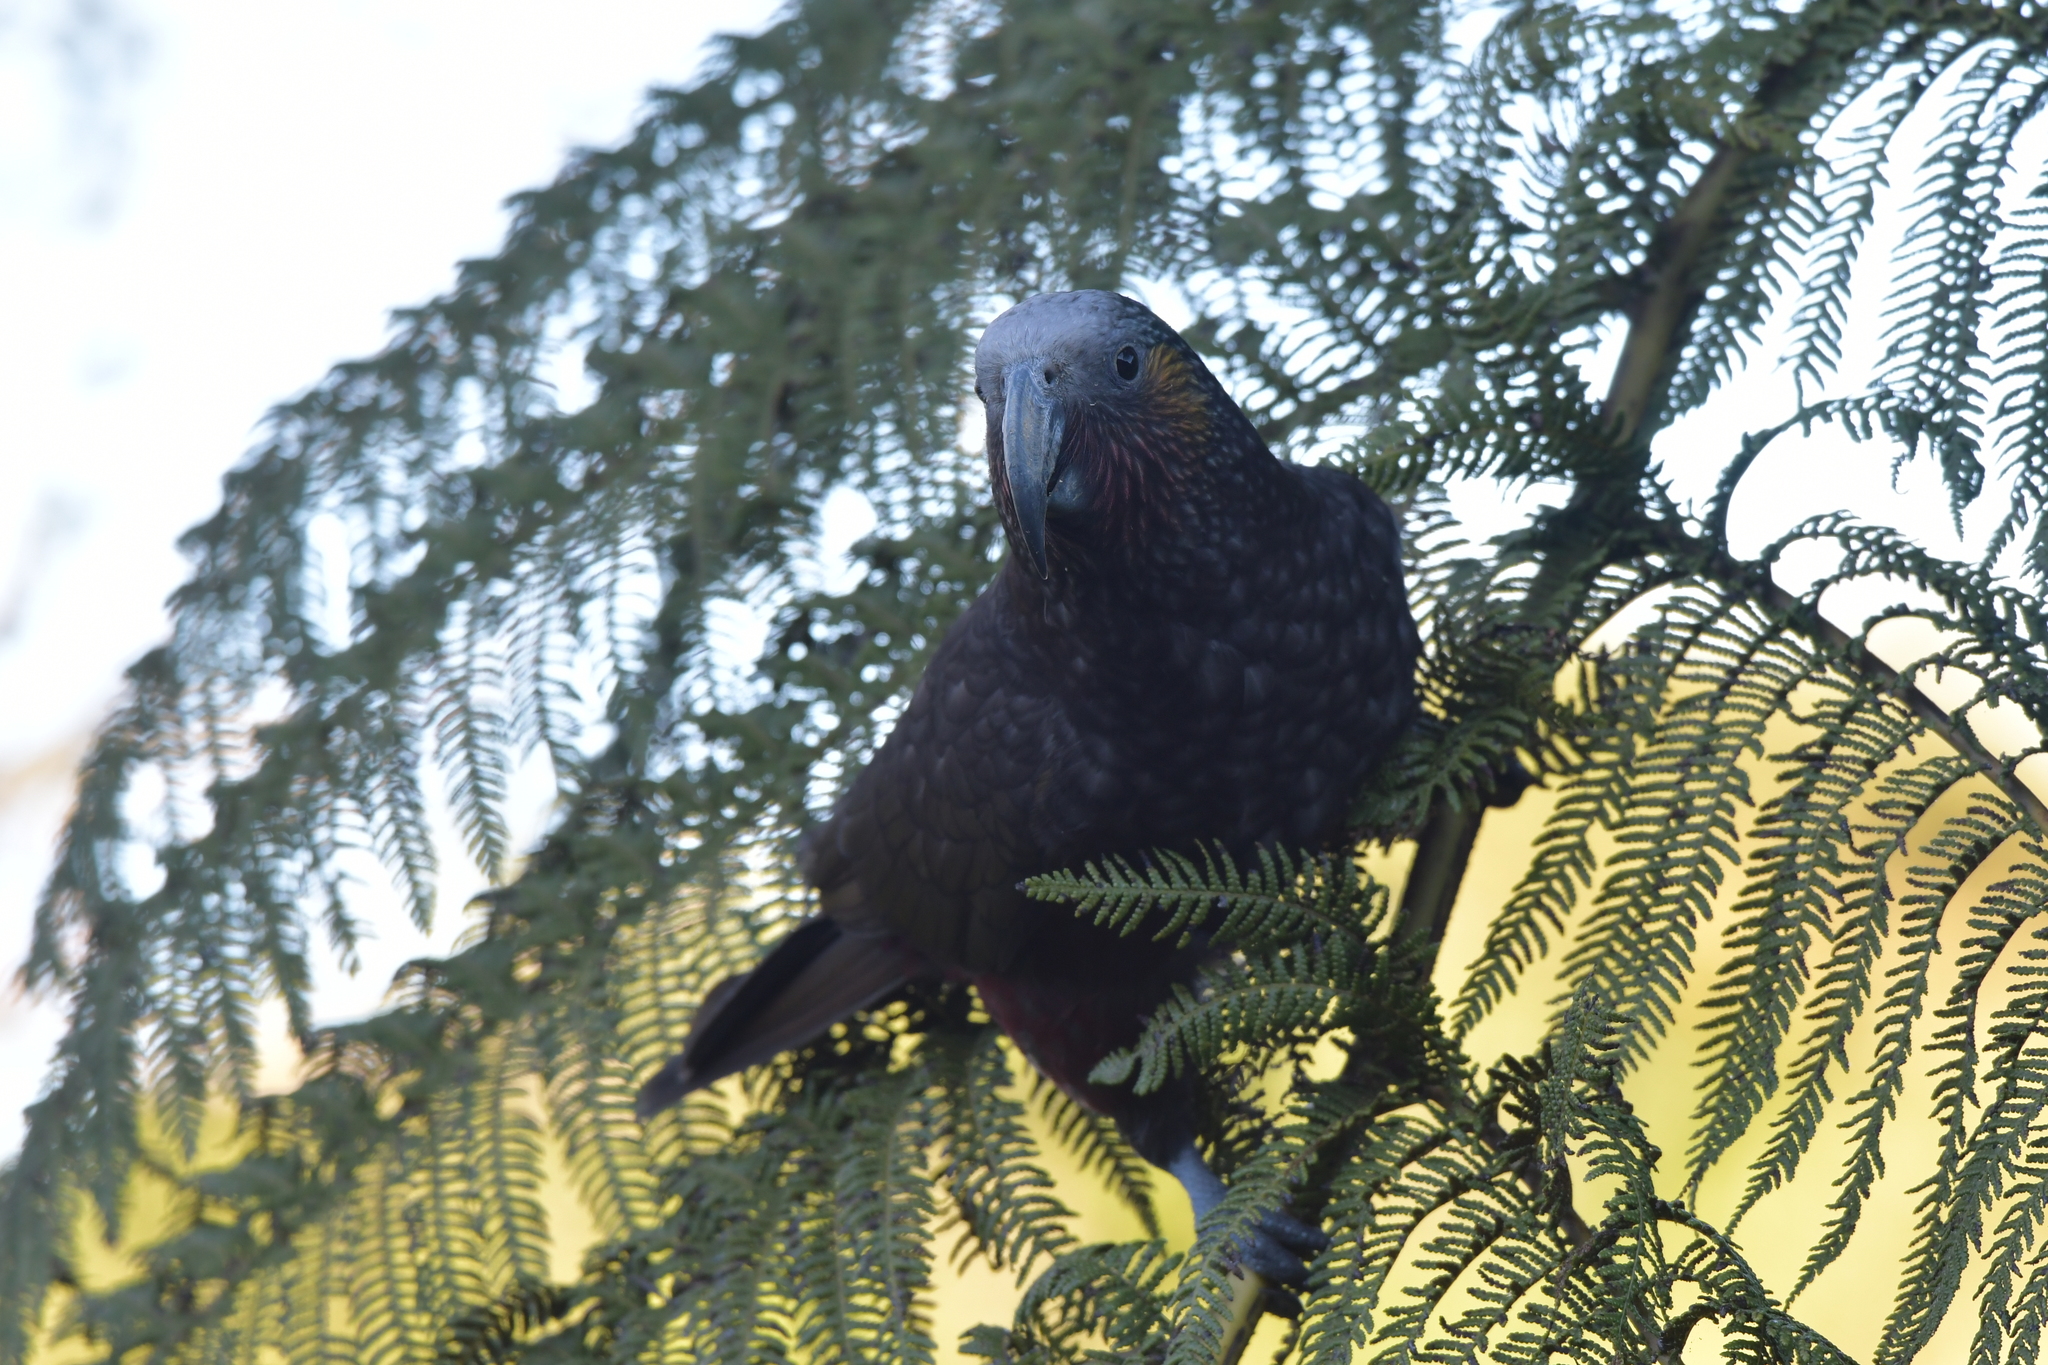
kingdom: Animalia
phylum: Chordata
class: Aves
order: Psittaciformes
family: Psittacidae
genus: Nestor
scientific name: Nestor meridionalis
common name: New zealand kaka
